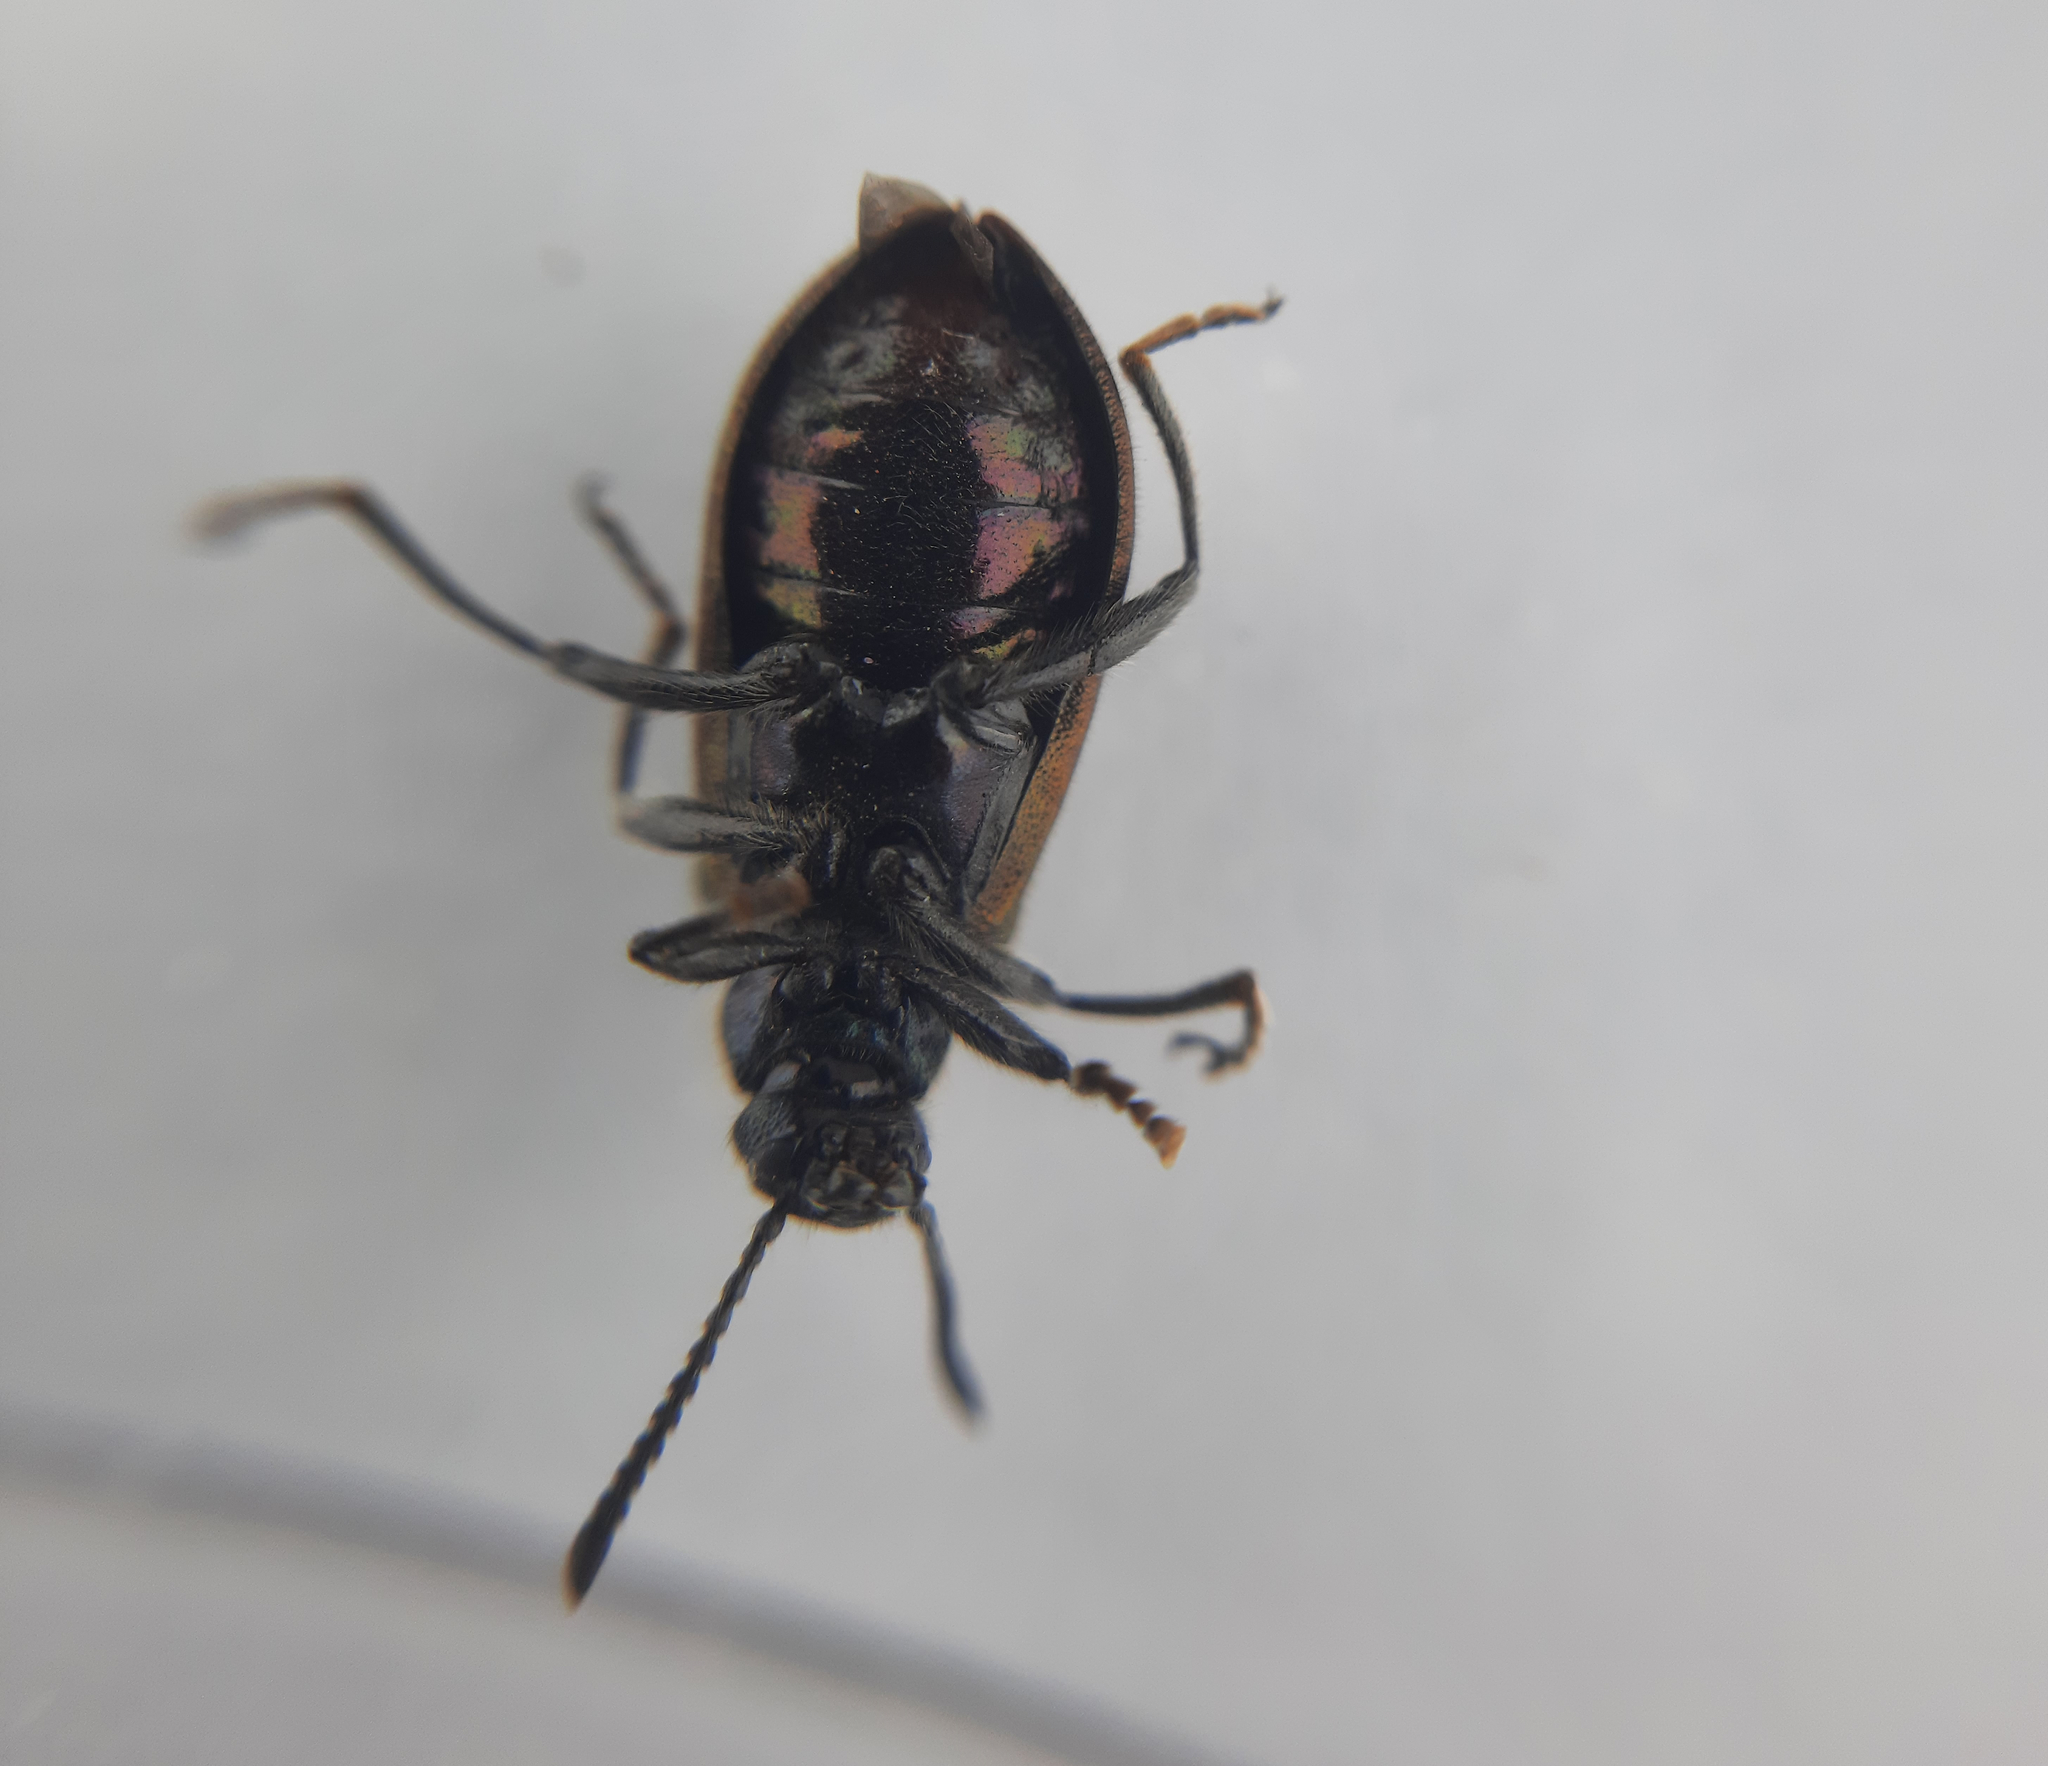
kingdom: Animalia
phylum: Arthropoda
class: Insecta
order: Coleoptera
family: Tenebrionidae
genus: Lagria
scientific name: Lagria villosa
